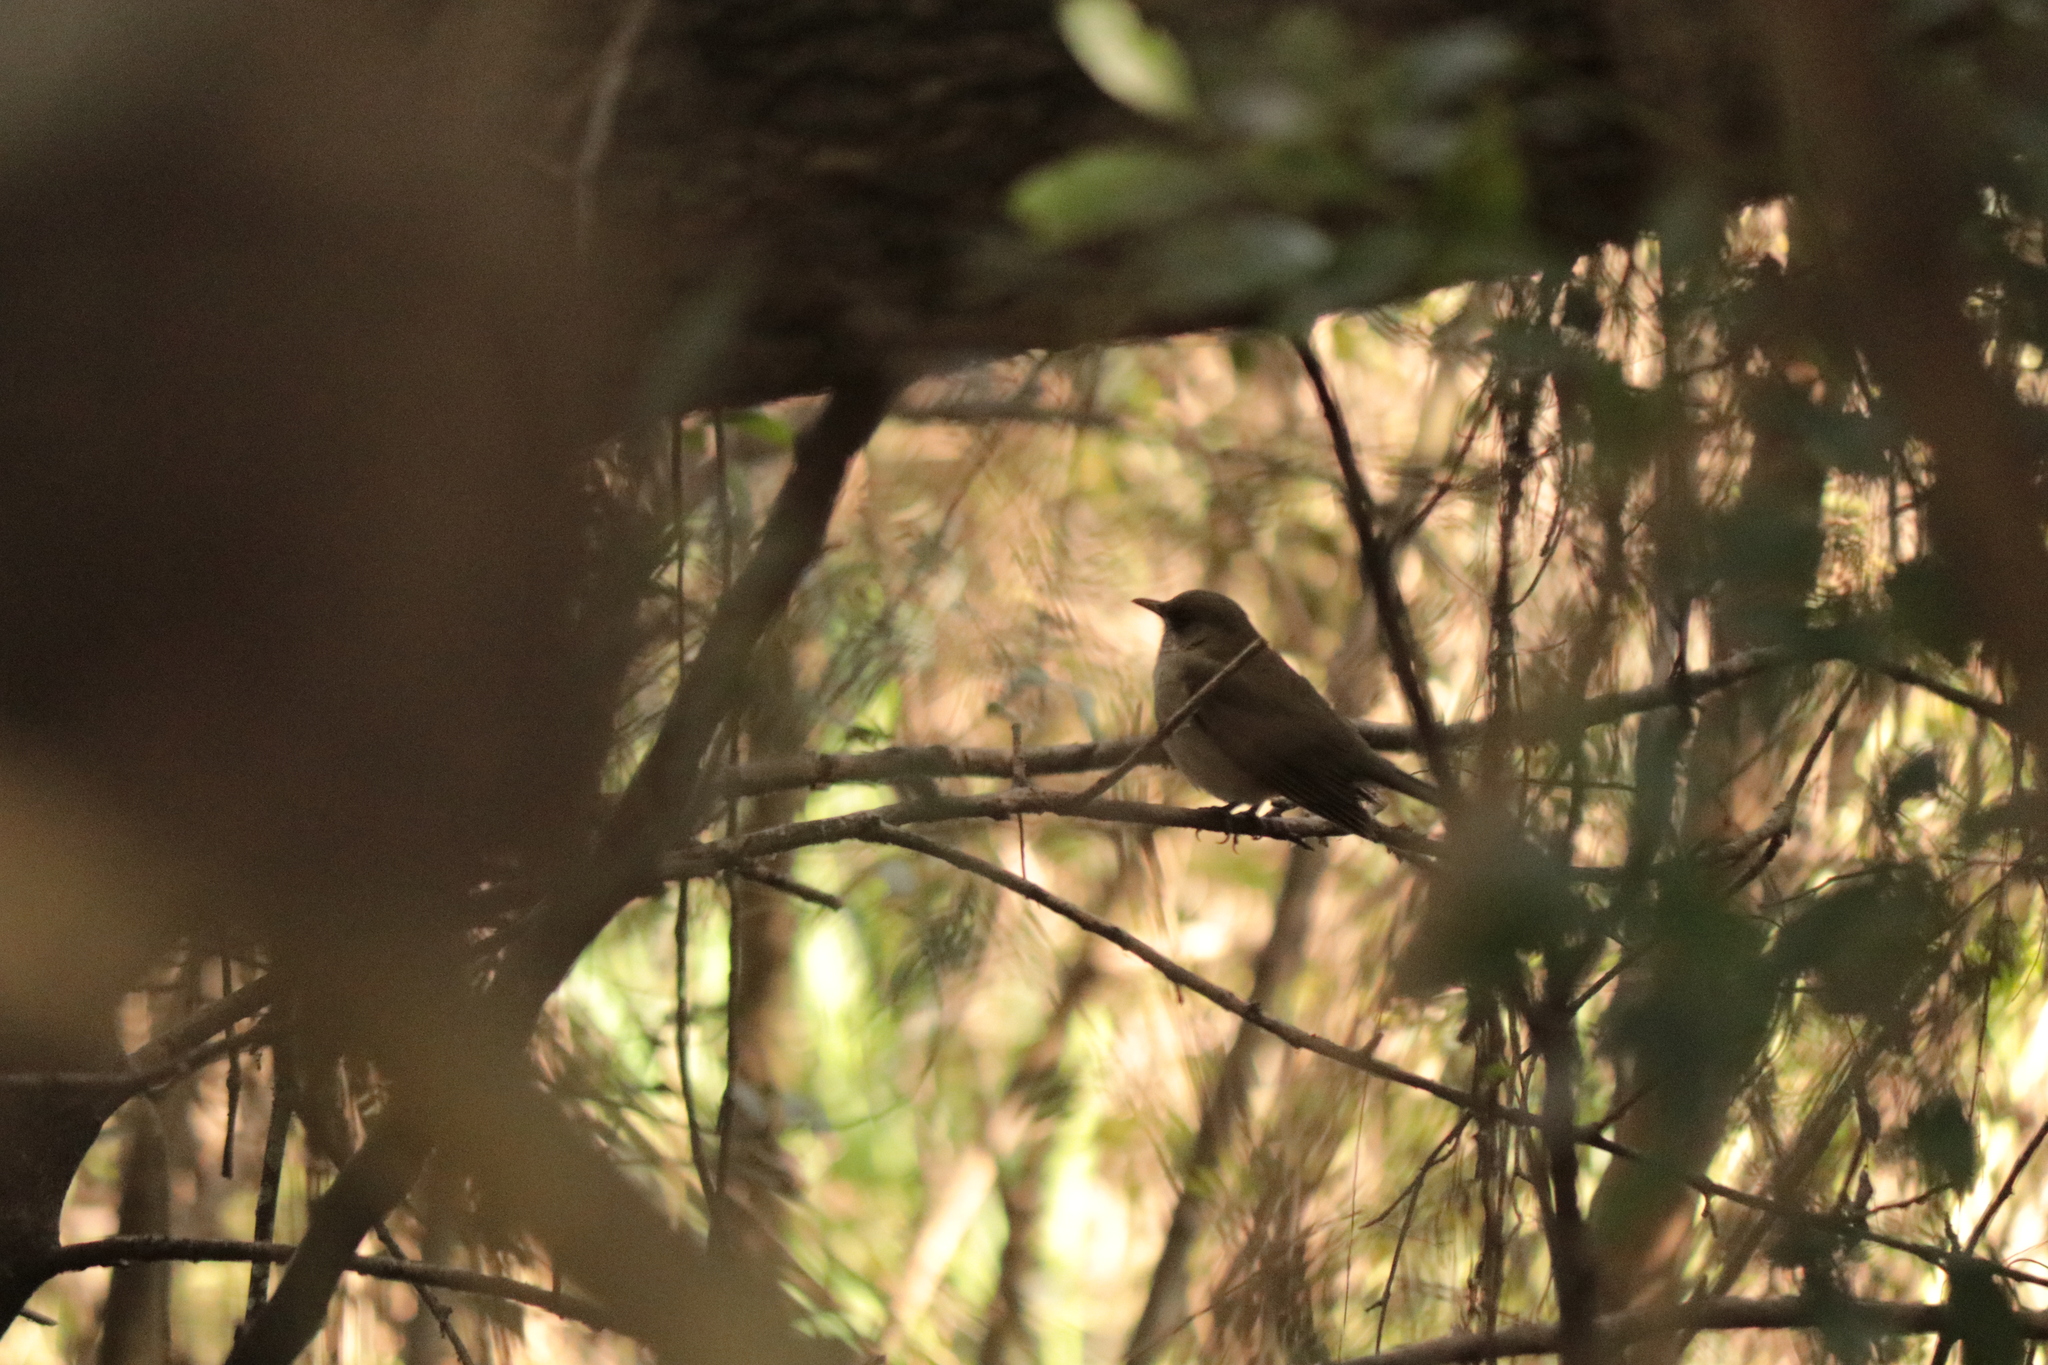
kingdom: Animalia
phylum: Chordata
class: Aves
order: Passeriformes
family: Turdidae
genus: Turdus
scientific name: Turdus amaurochalinus
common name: Creamy-bellied thrush
